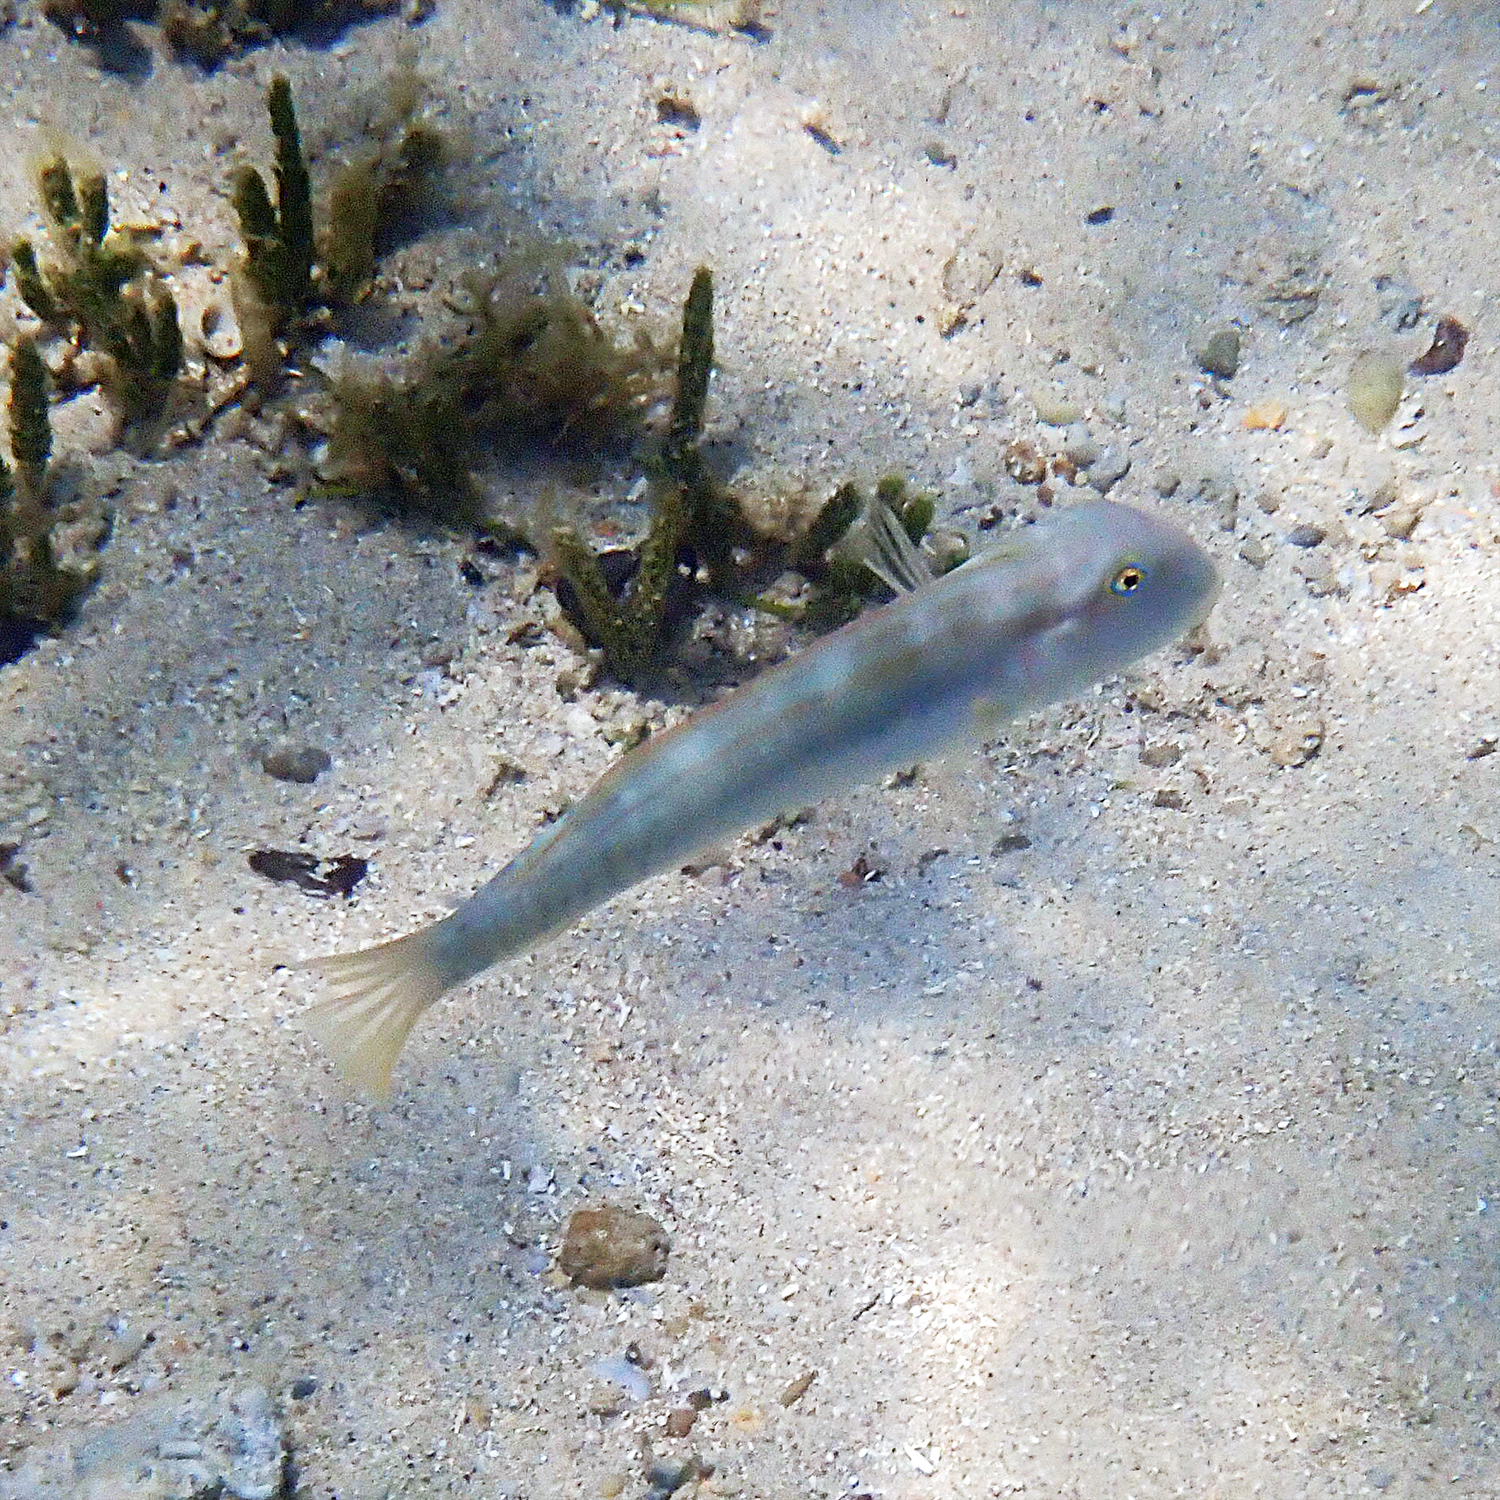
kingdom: Animalia
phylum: Chordata
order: Perciformes
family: Labridae
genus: Cymolutes
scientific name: Cymolutes praetextatus
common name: Knife razorfish
